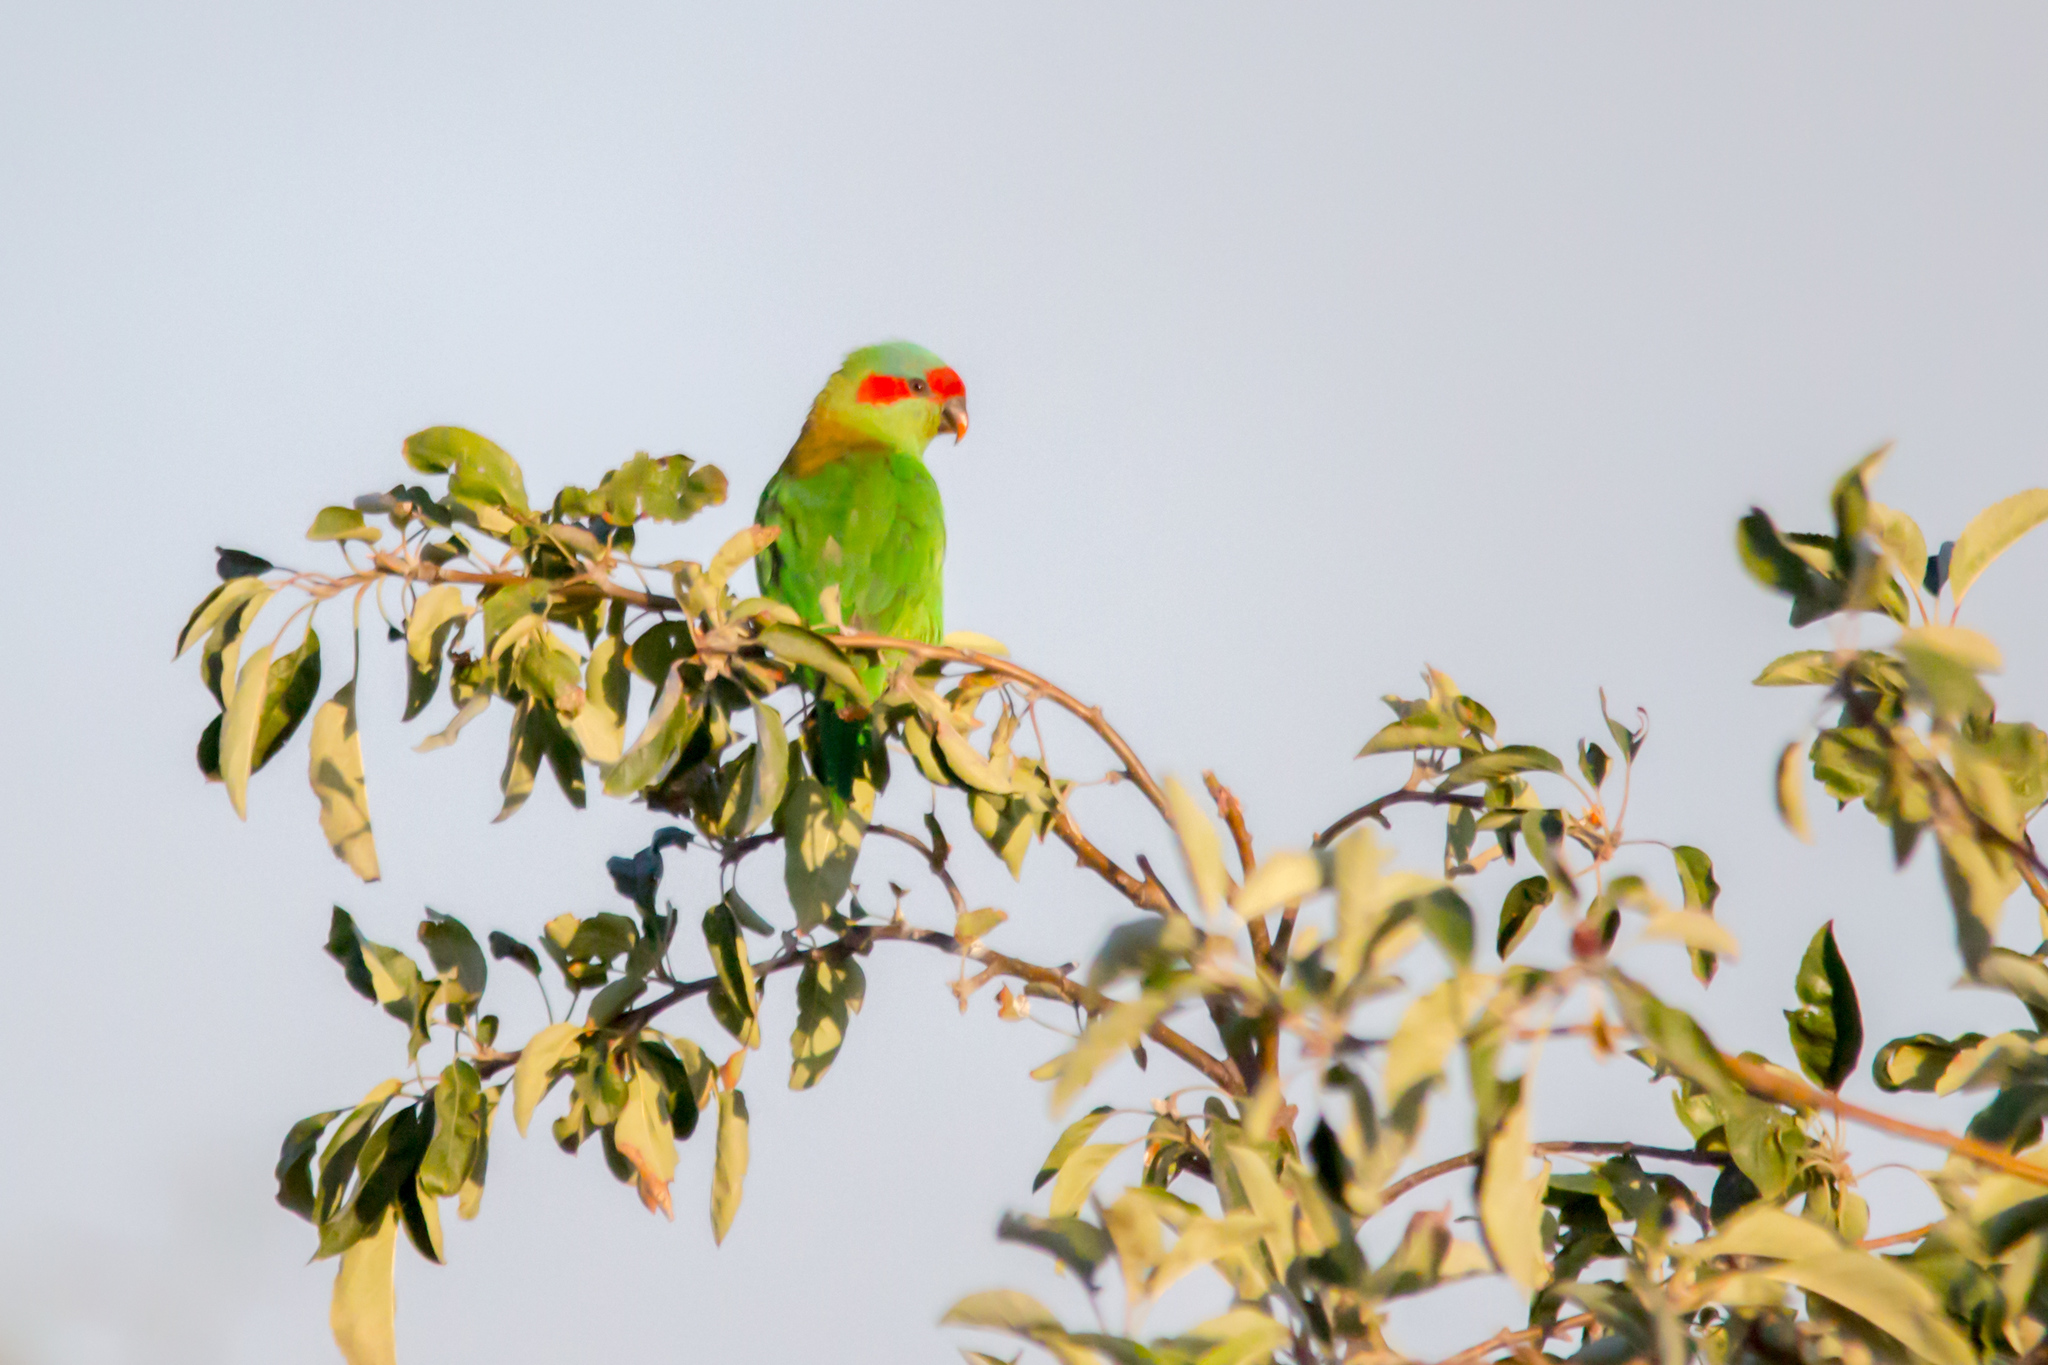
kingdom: Animalia
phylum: Chordata
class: Aves
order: Psittaciformes
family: Psittacidae
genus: Glossopsitta
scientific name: Glossopsitta concinna
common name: Musk lorikeet
